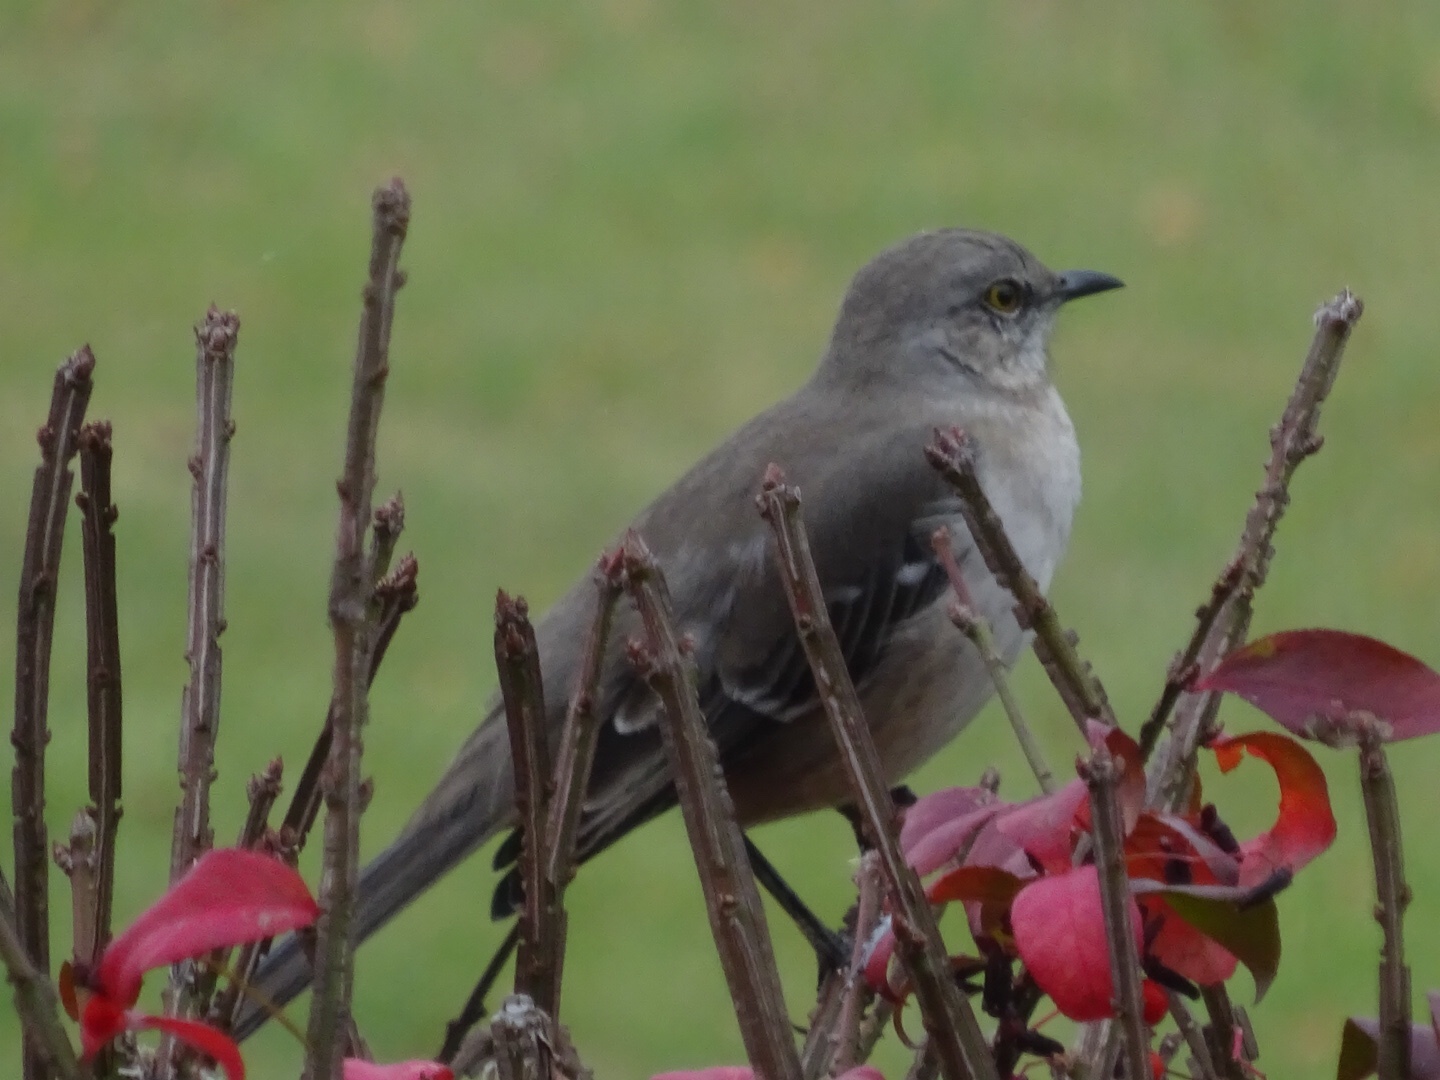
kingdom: Animalia
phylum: Chordata
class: Aves
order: Passeriformes
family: Mimidae
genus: Mimus
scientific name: Mimus polyglottos
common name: Northern mockingbird
